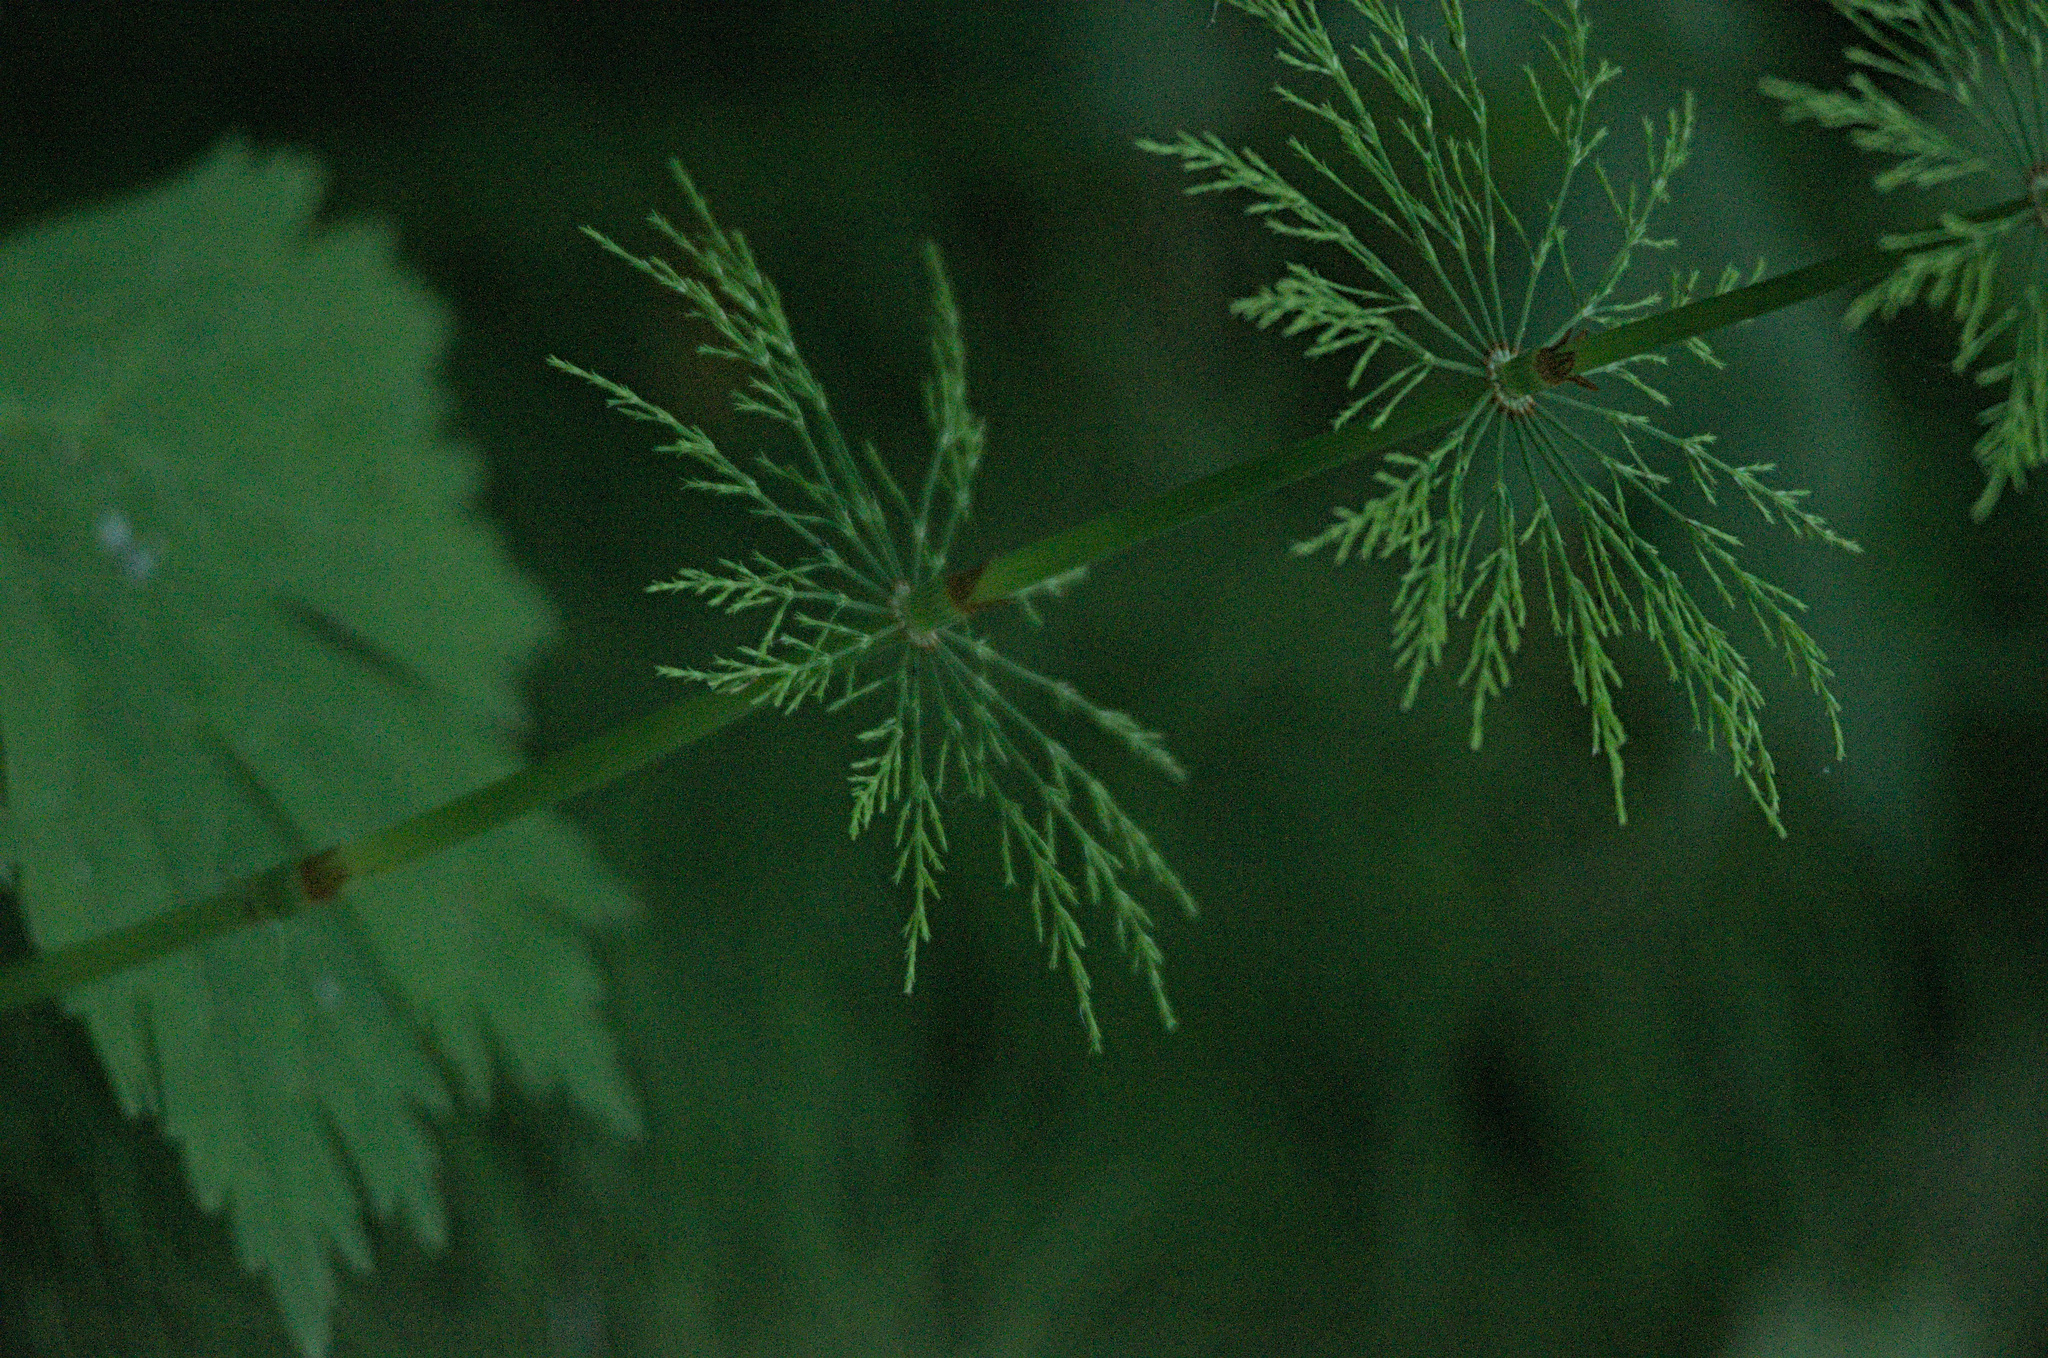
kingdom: Plantae
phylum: Tracheophyta
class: Polypodiopsida
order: Equisetales
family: Equisetaceae
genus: Equisetum
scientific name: Equisetum sylvaticum
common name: Wood horsetail
